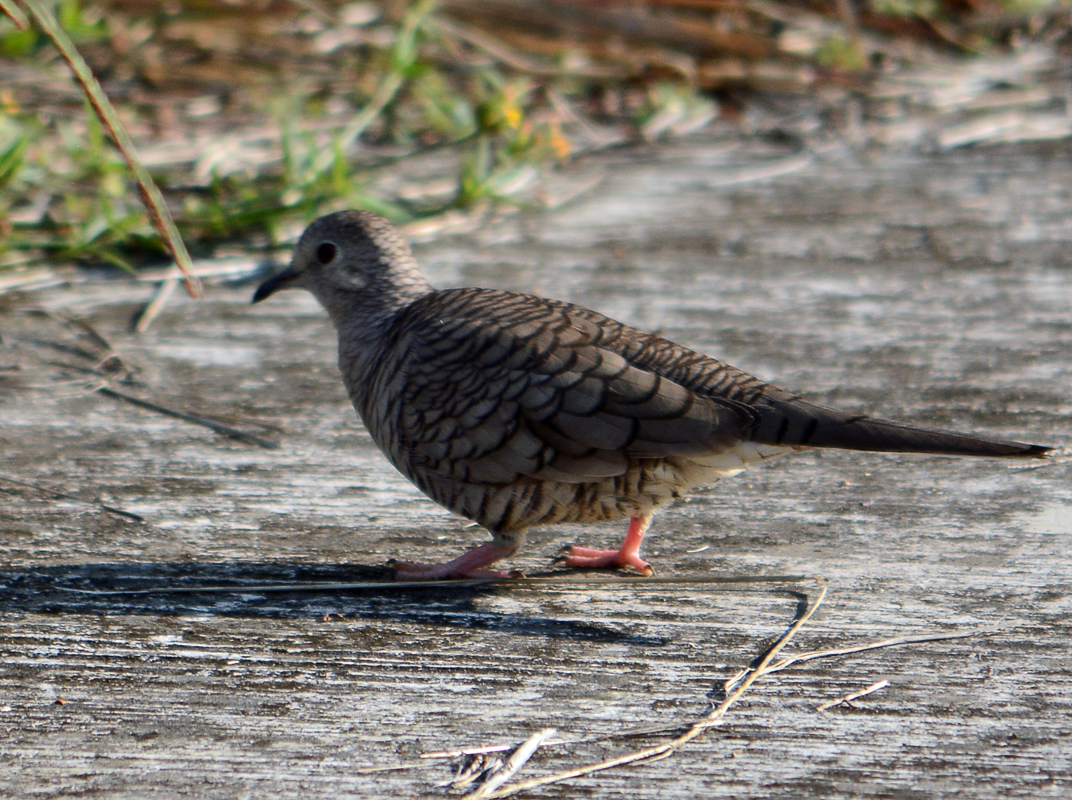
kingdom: Animalia
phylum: Chordata
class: Aves
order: Columbiformes
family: Columbidae
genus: Columbina
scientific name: Columbina inca
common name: Inca dove
